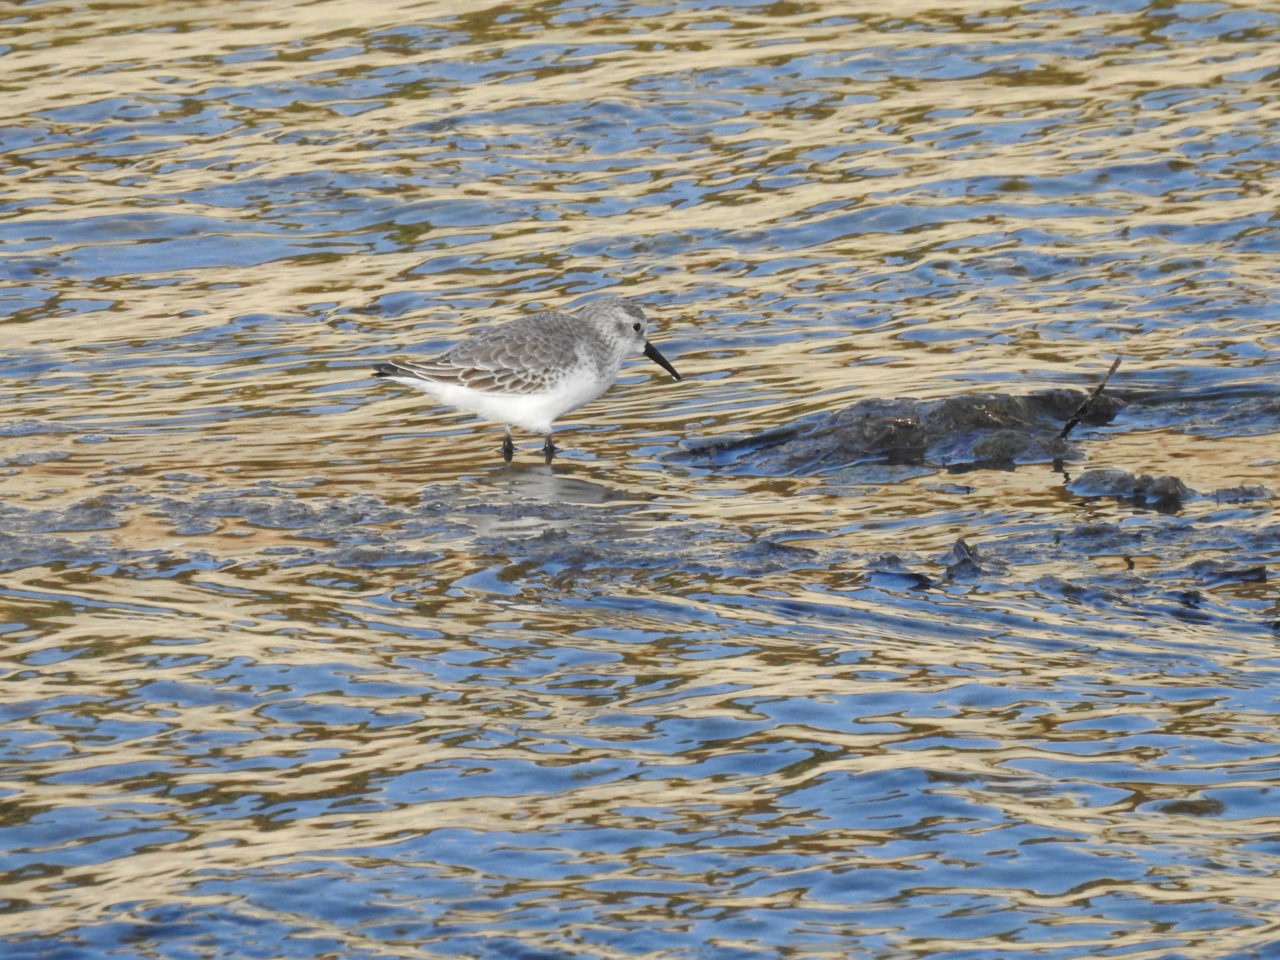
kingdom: Animalia
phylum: Chordata
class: Aves
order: Charadriiformes
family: Scolopacidae
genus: Calidris
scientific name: Calidris mauri
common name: Western sandpiper
